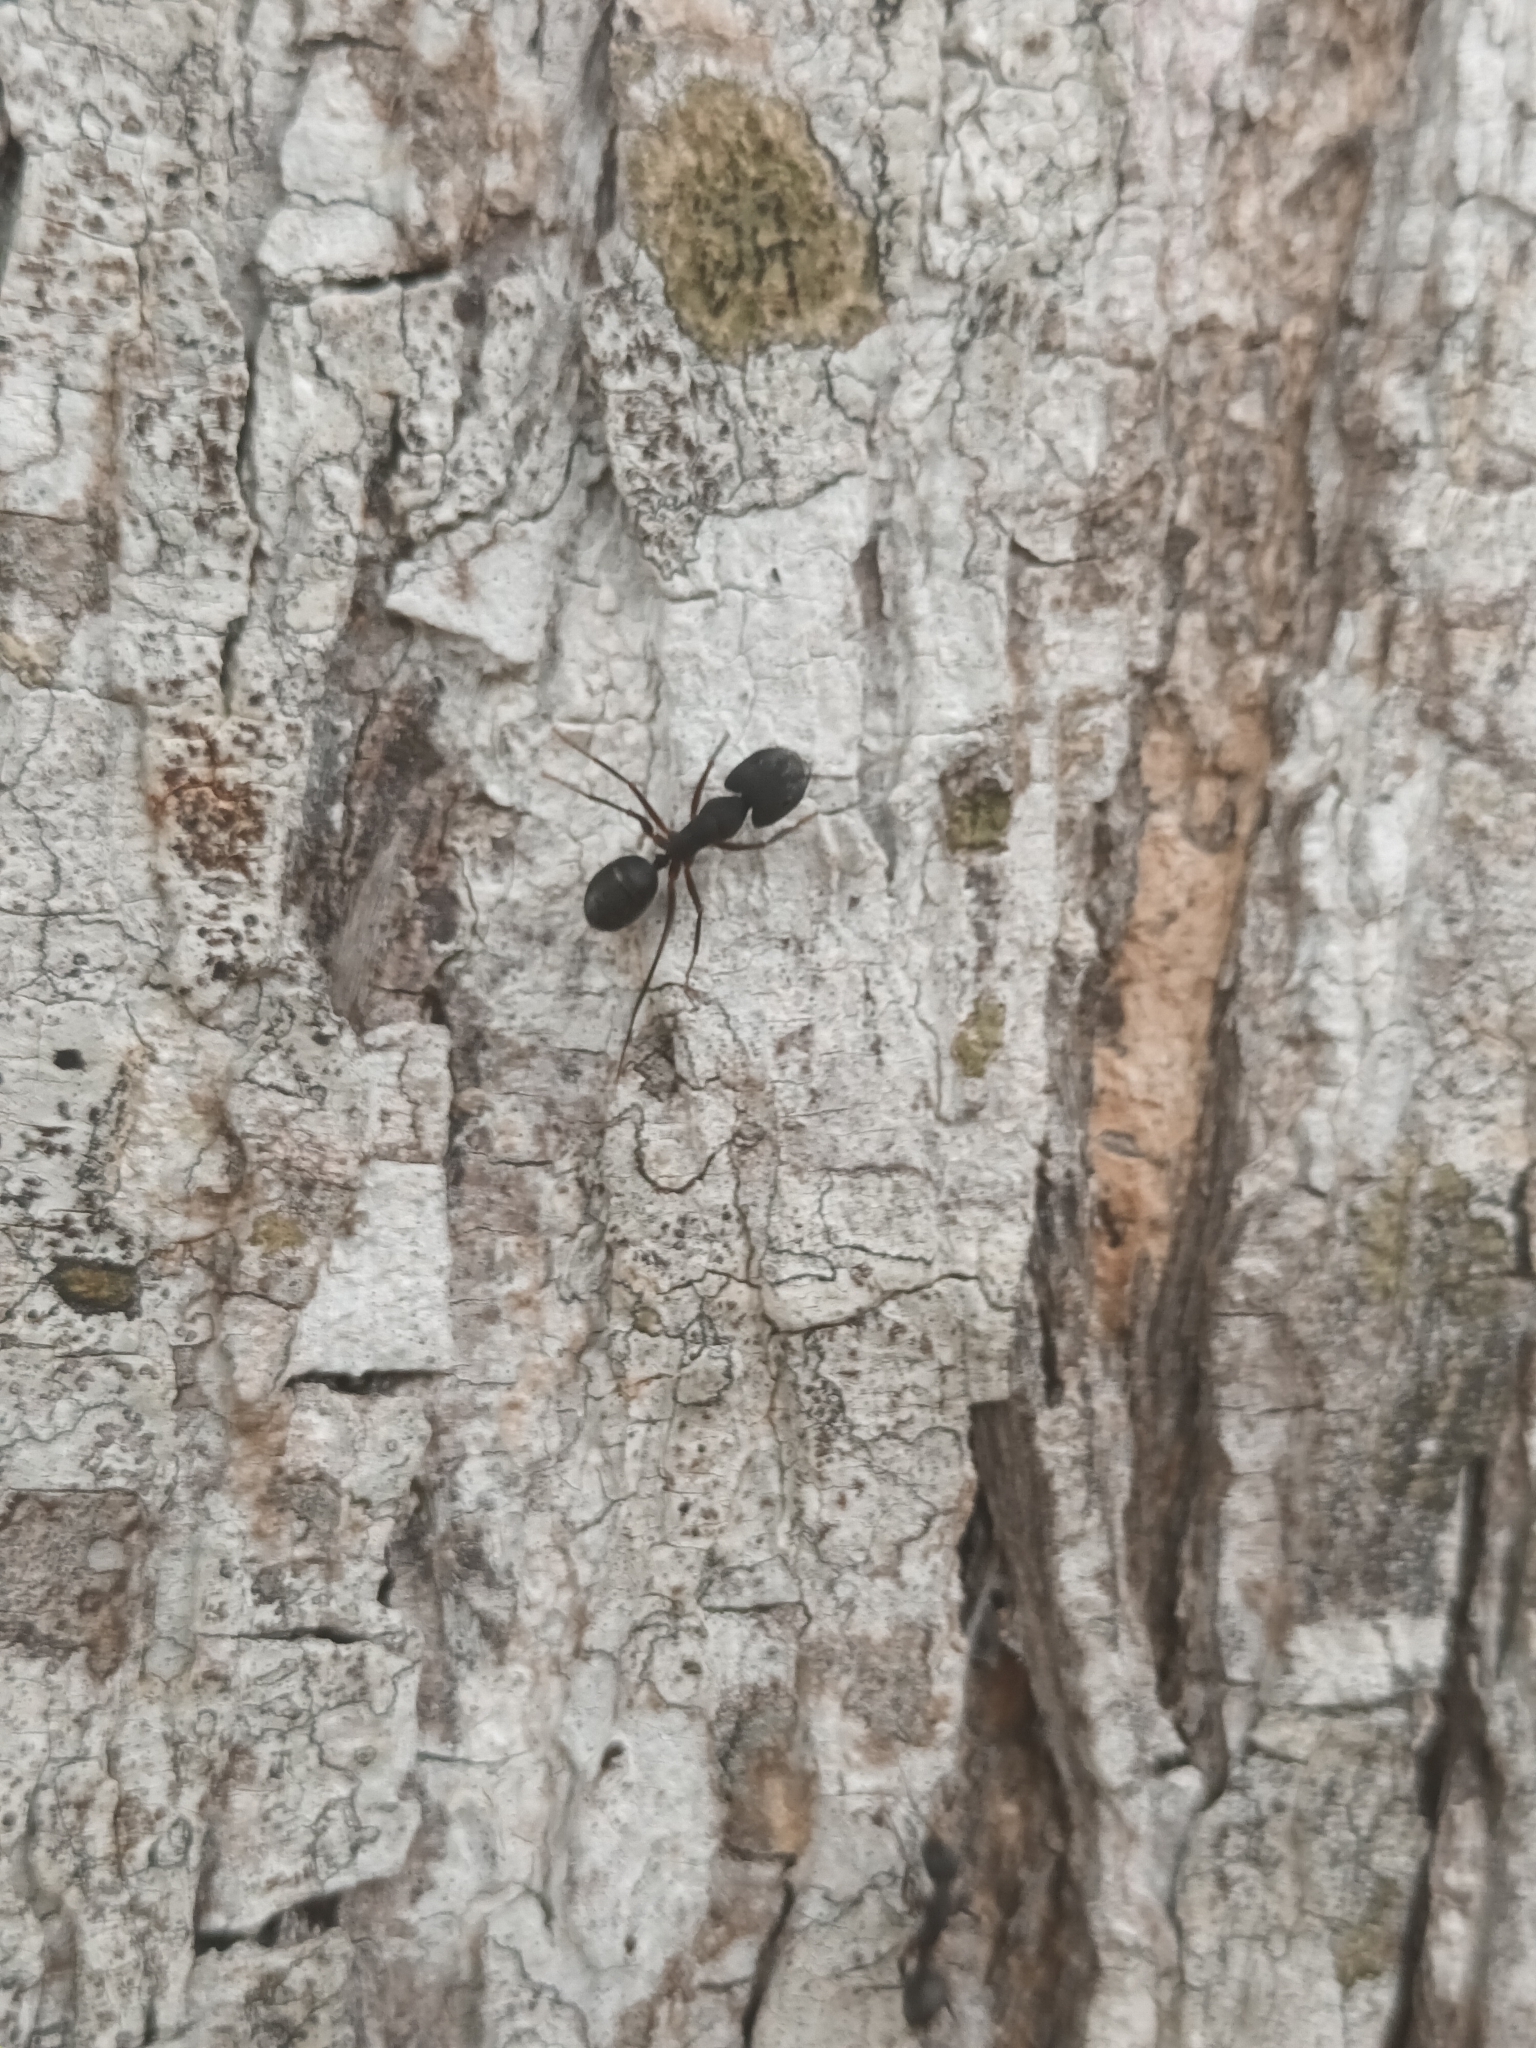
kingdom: Animalia
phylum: Arthropoda
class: Insecta
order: Hymenoptera
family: Formicidae
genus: Camponotus
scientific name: Camponotus compressus
